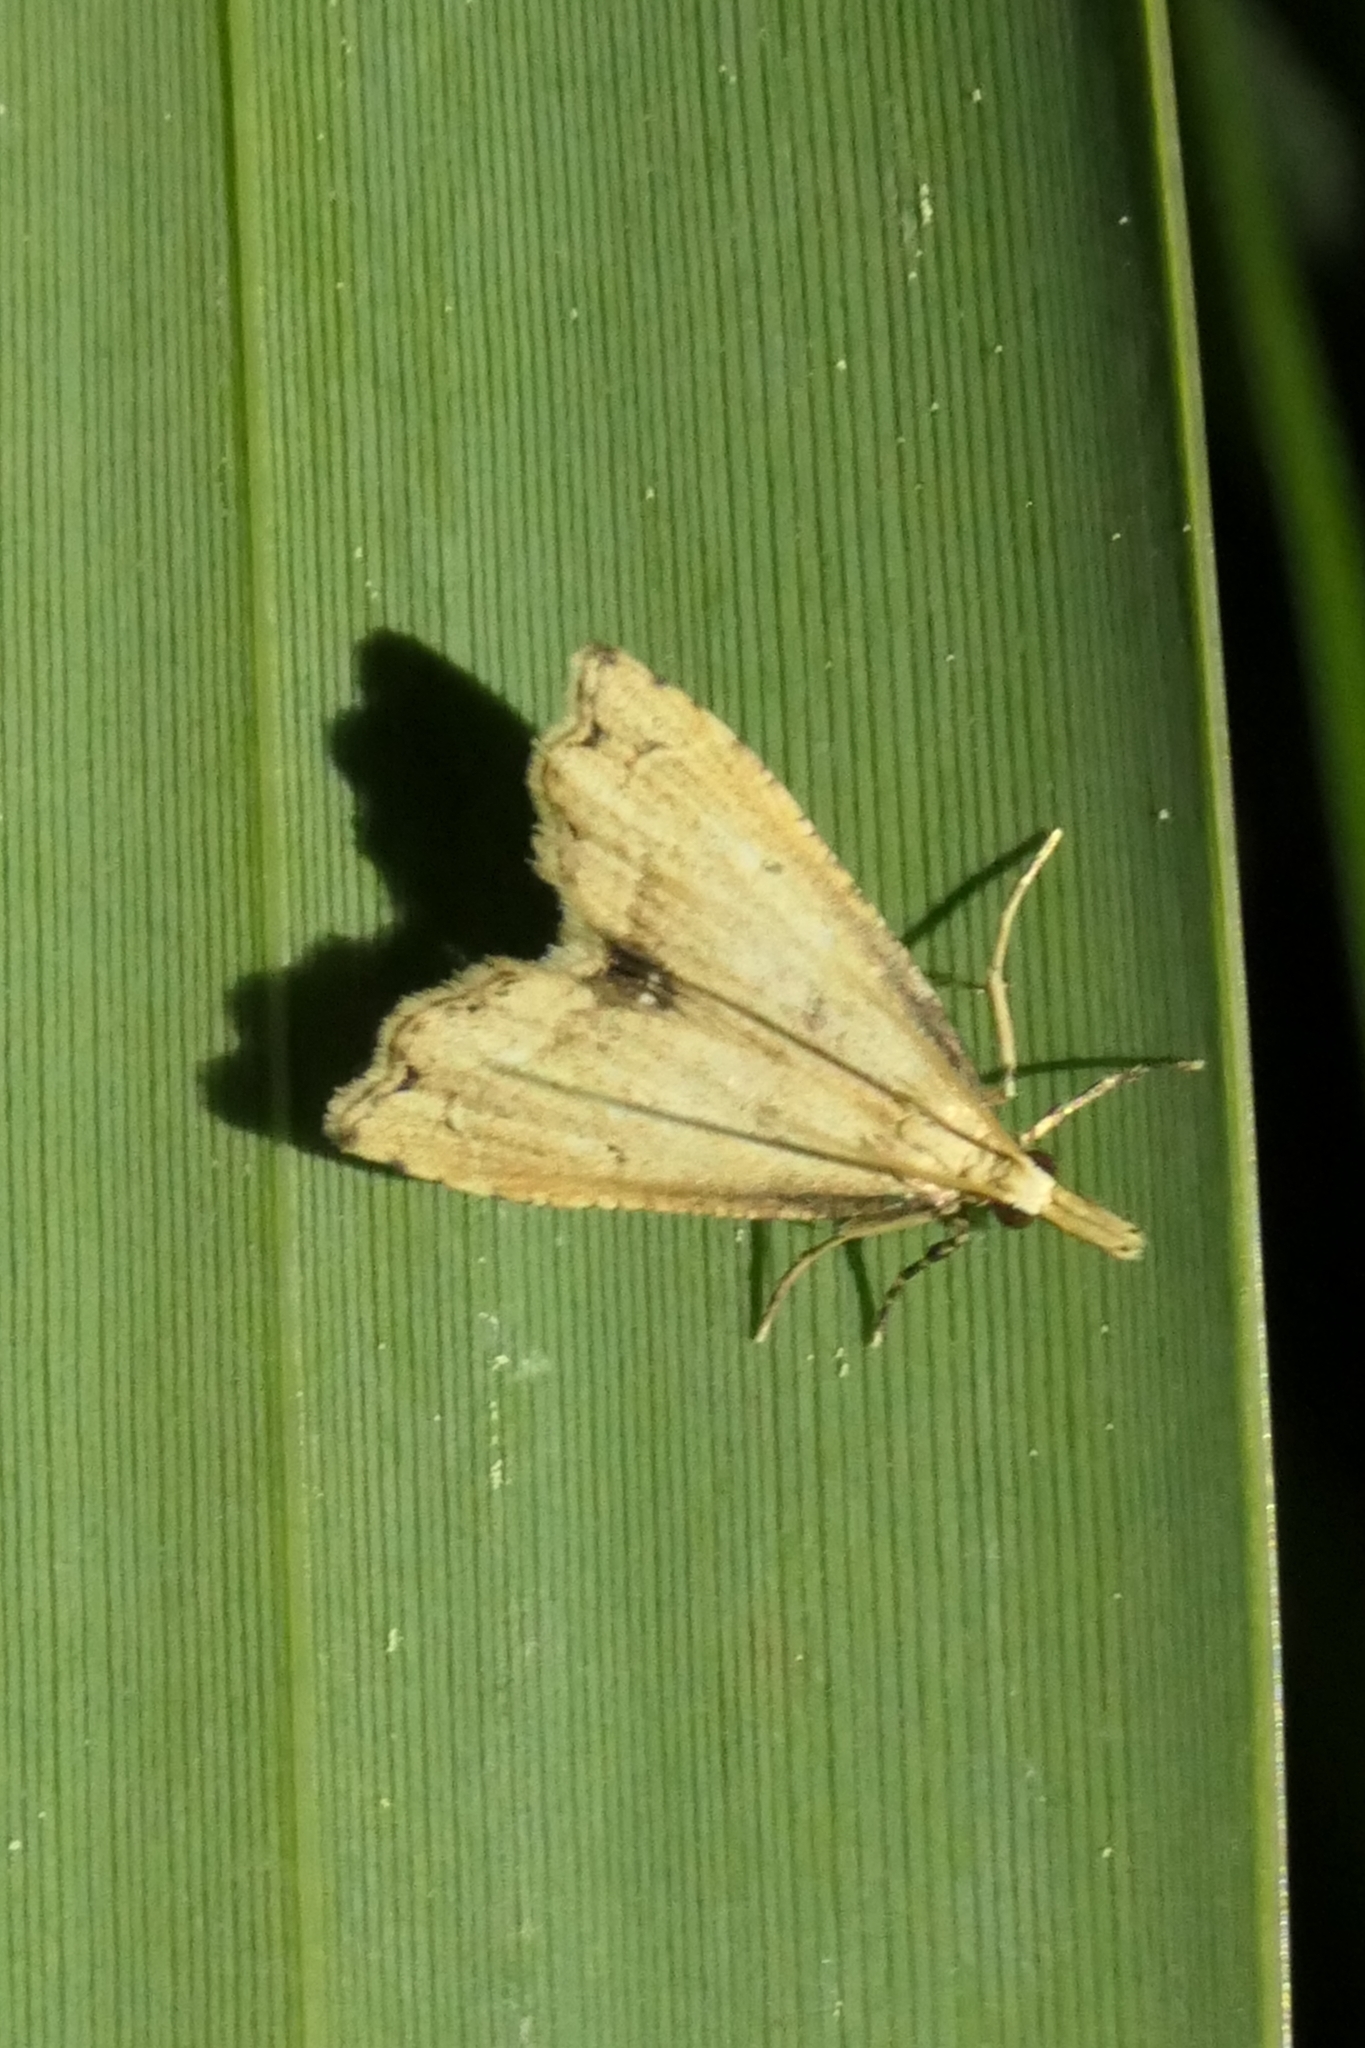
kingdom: Animalia
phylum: Arthropoda
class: Insecta
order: Lepidoptera
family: Crambidae
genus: Diplopseustis
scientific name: Diplopseustis perieresalis
